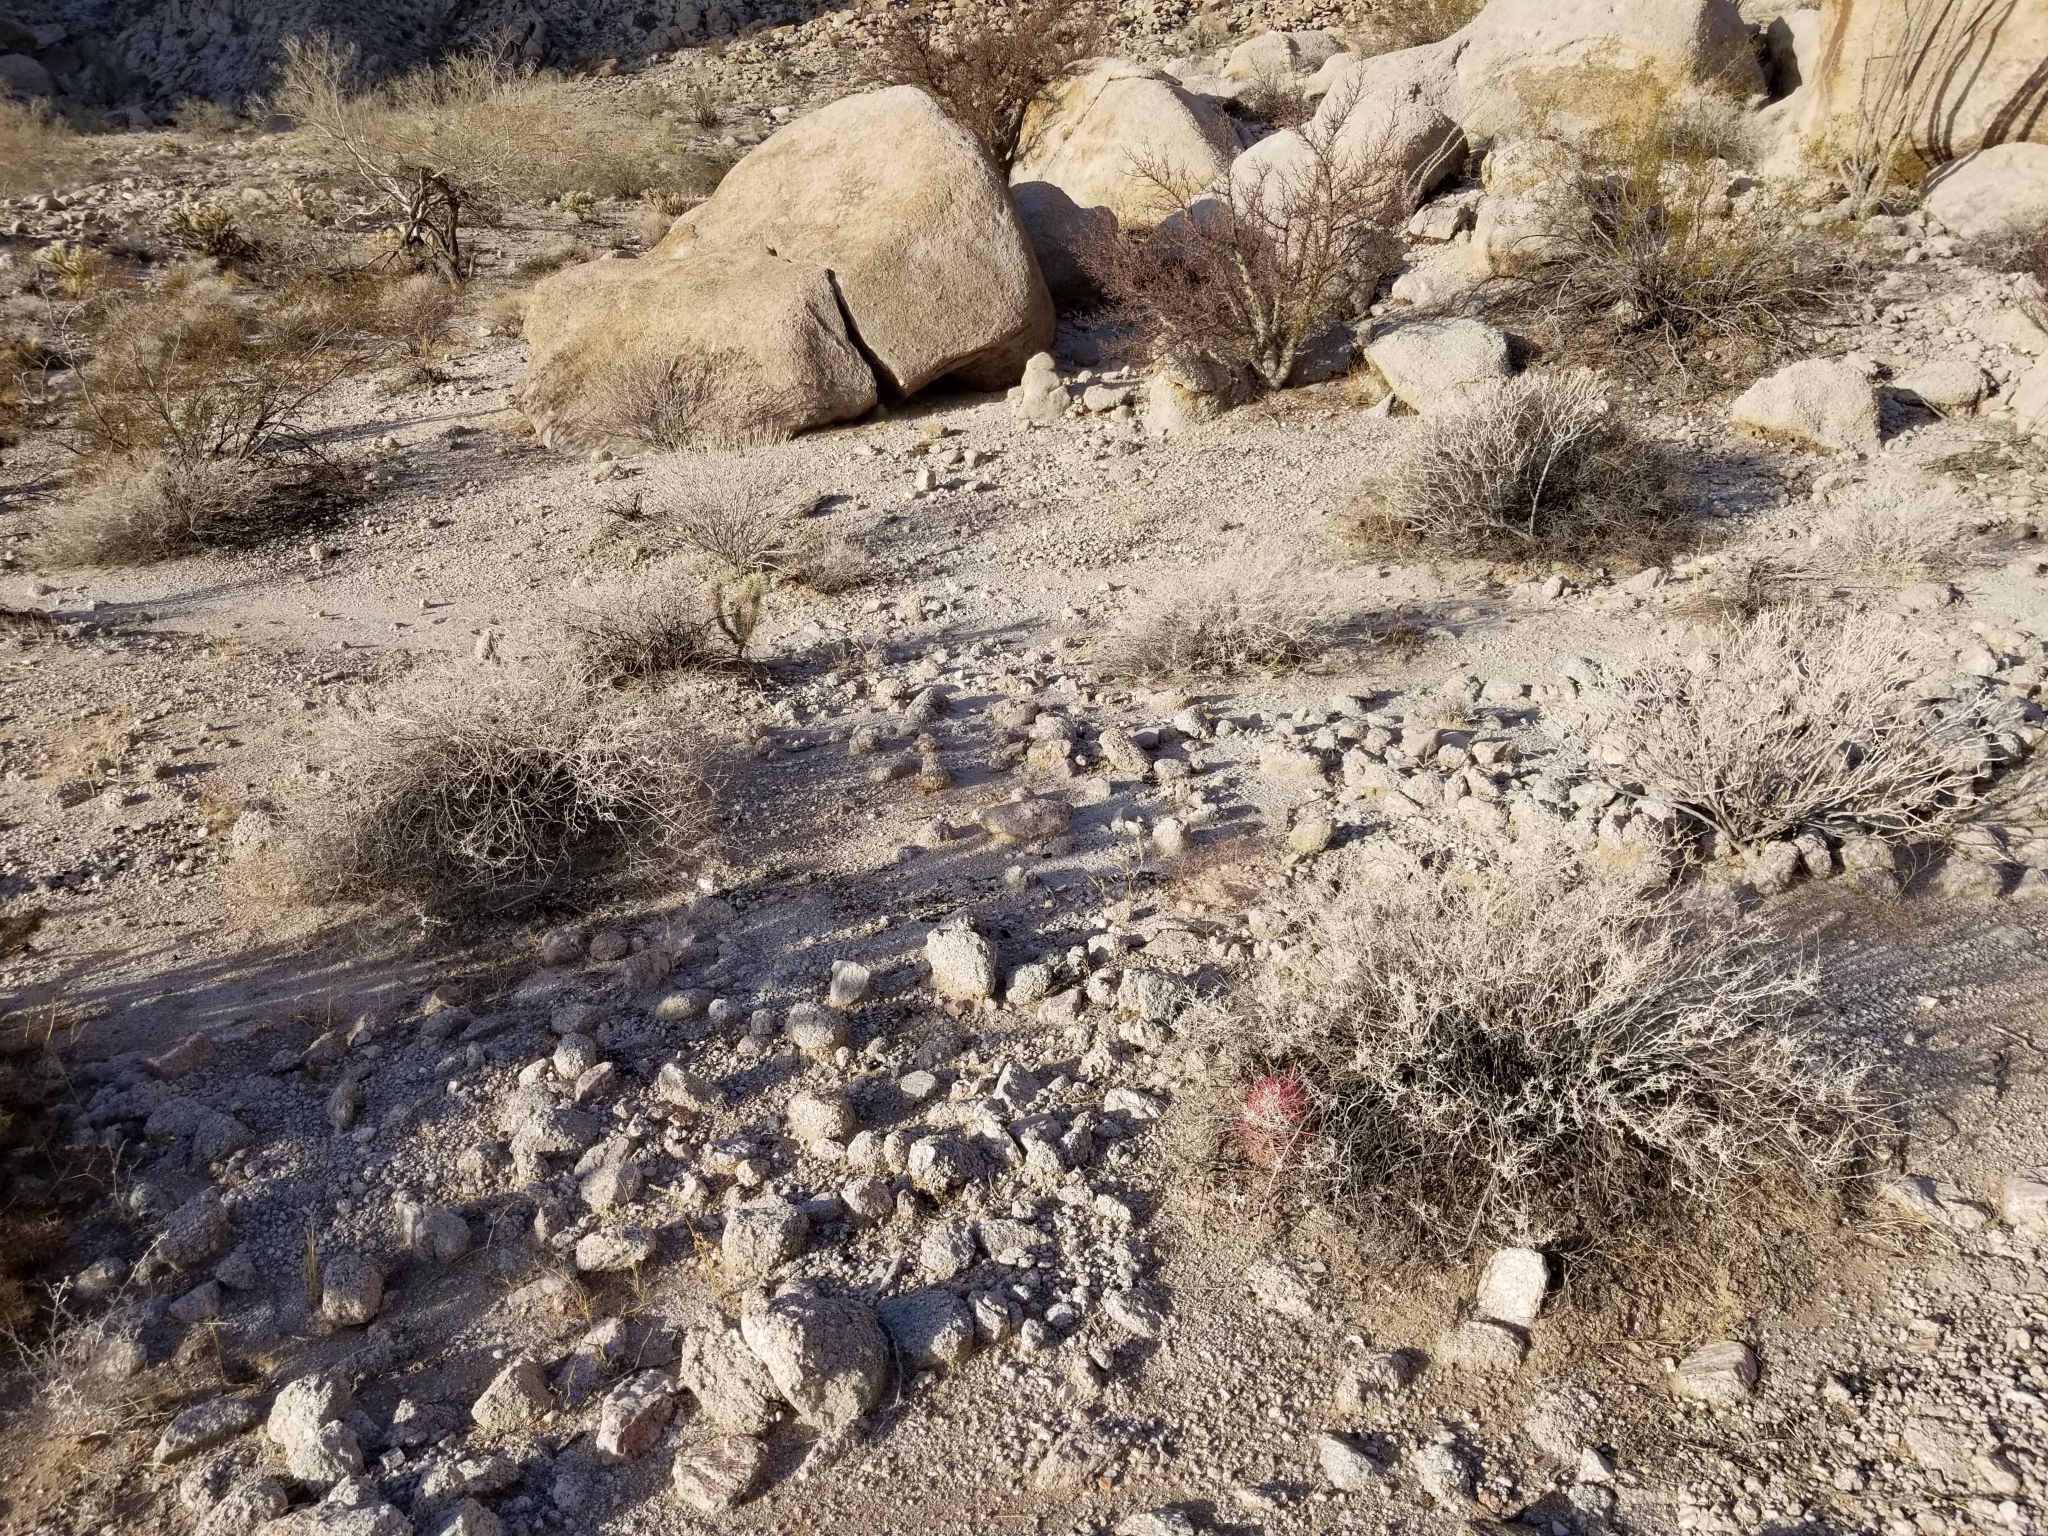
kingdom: Plantae
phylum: Tracheophyta
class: Magnoliopsida
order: Caryophyllales
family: Cactaceae
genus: Ferocactus
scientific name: Ferocactus cylindraceus
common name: California barrel cactus
